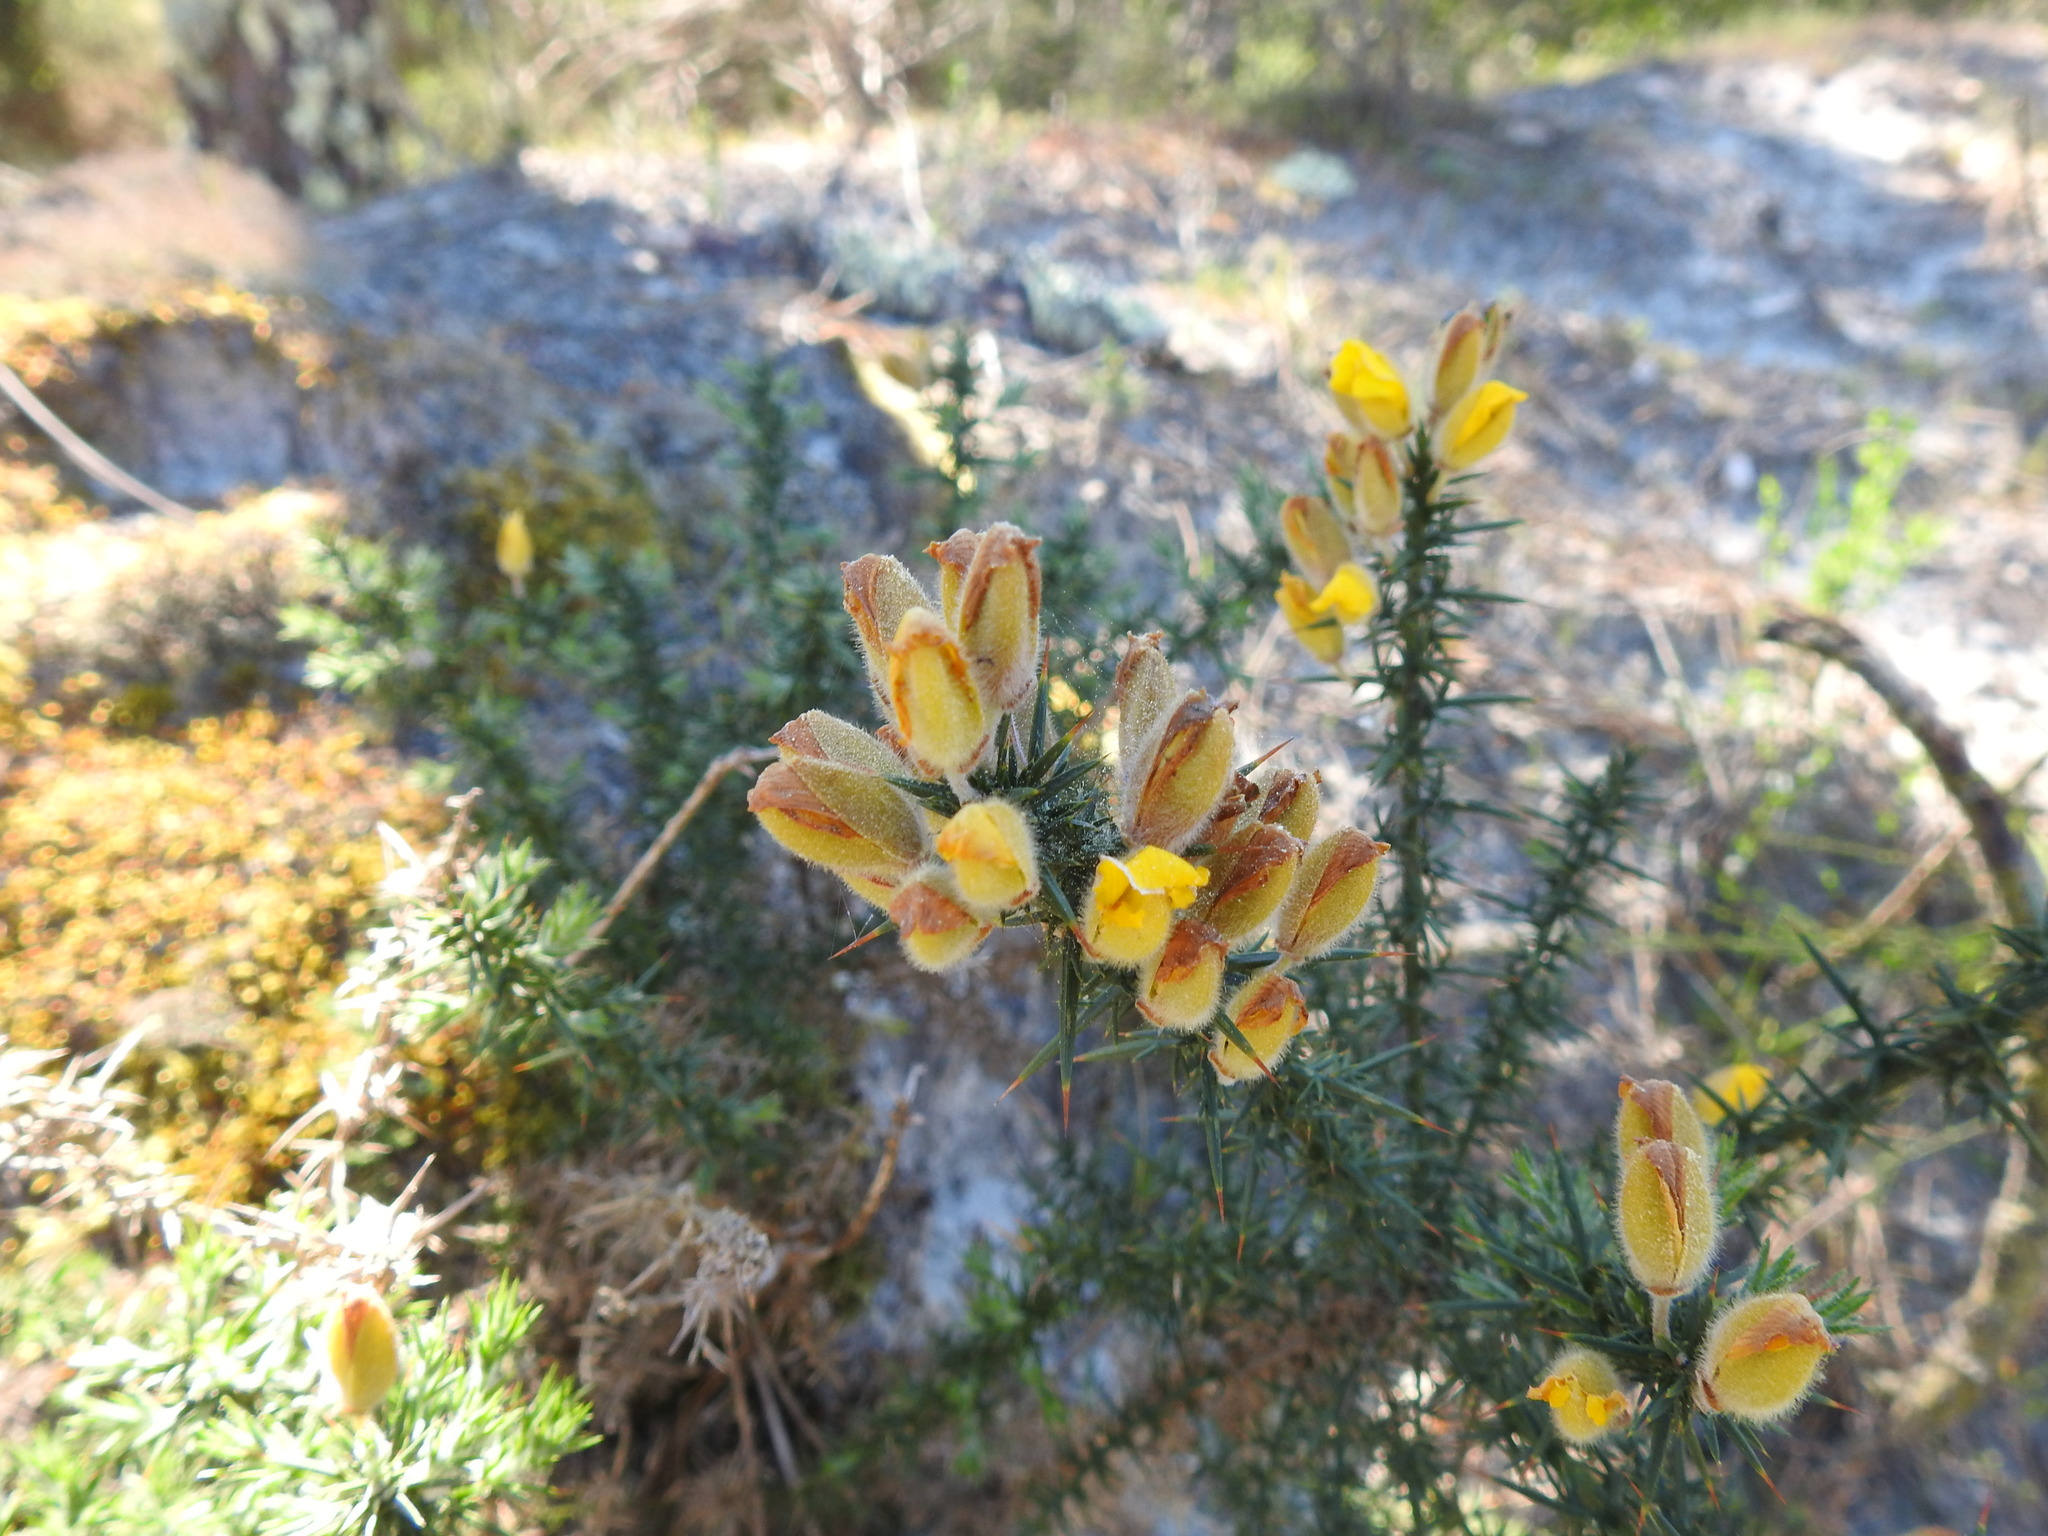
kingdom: Plantae
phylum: Tracheophyta
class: Magnoliopsida
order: Fabales
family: Fabaceae
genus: Ulex
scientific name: Ulex europaeus
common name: Common gorse
